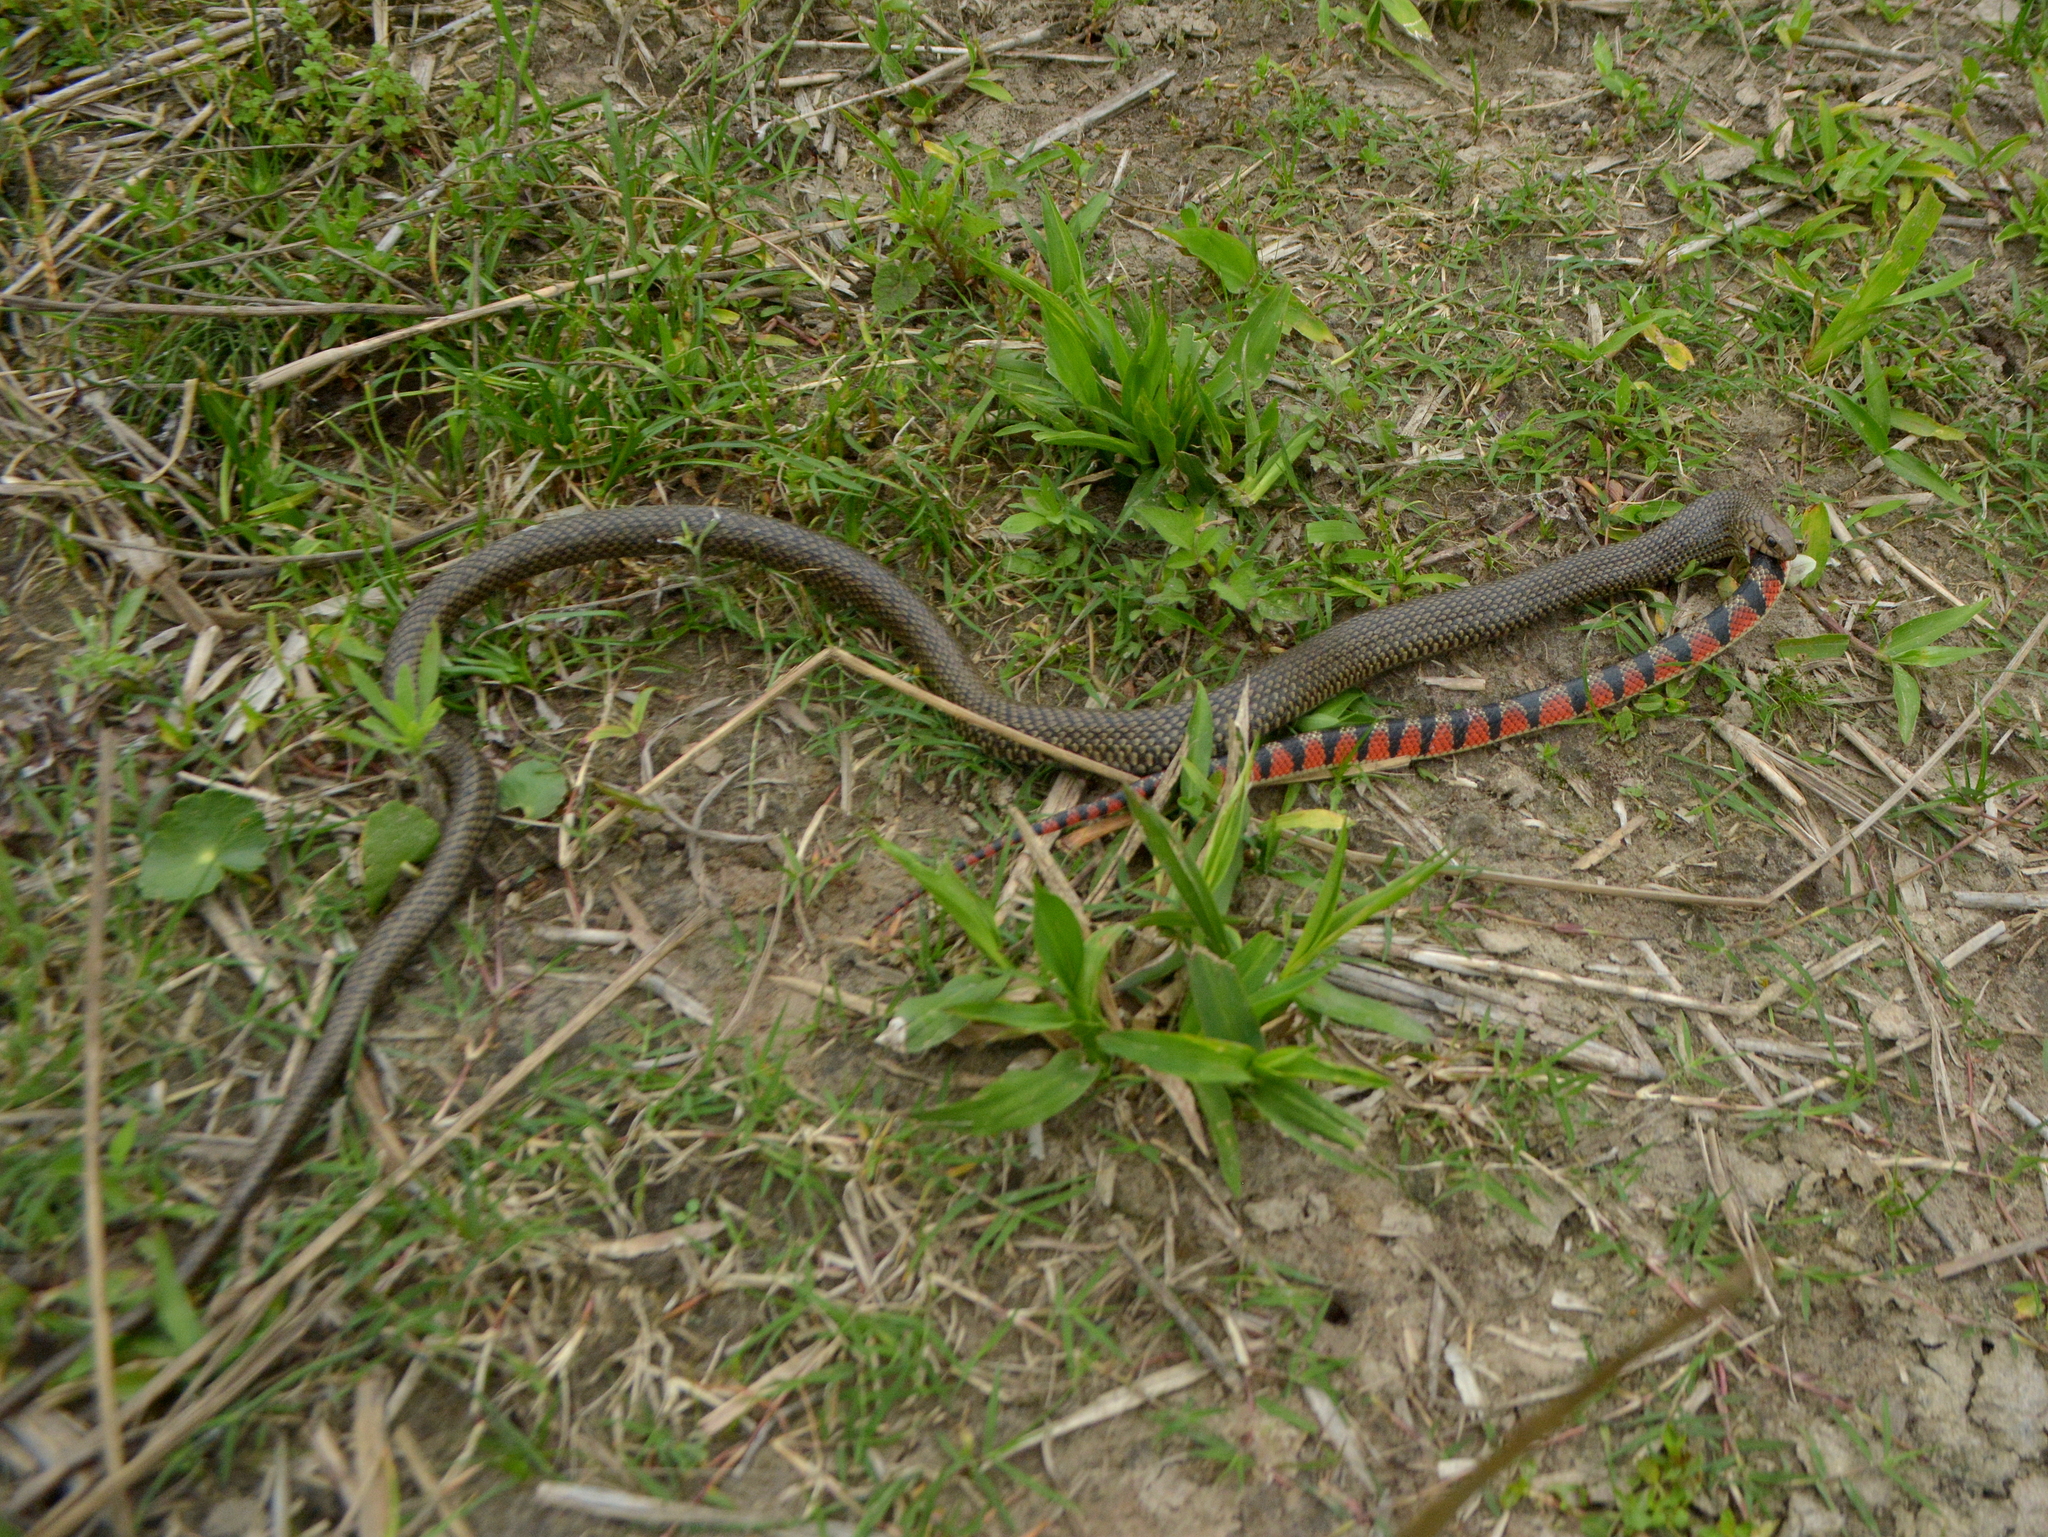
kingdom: Animalia
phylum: Chordata
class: Squamata
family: Colubridae
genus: Philodryas
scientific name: Philodryas patagoniensis
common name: Patagonia green racer
